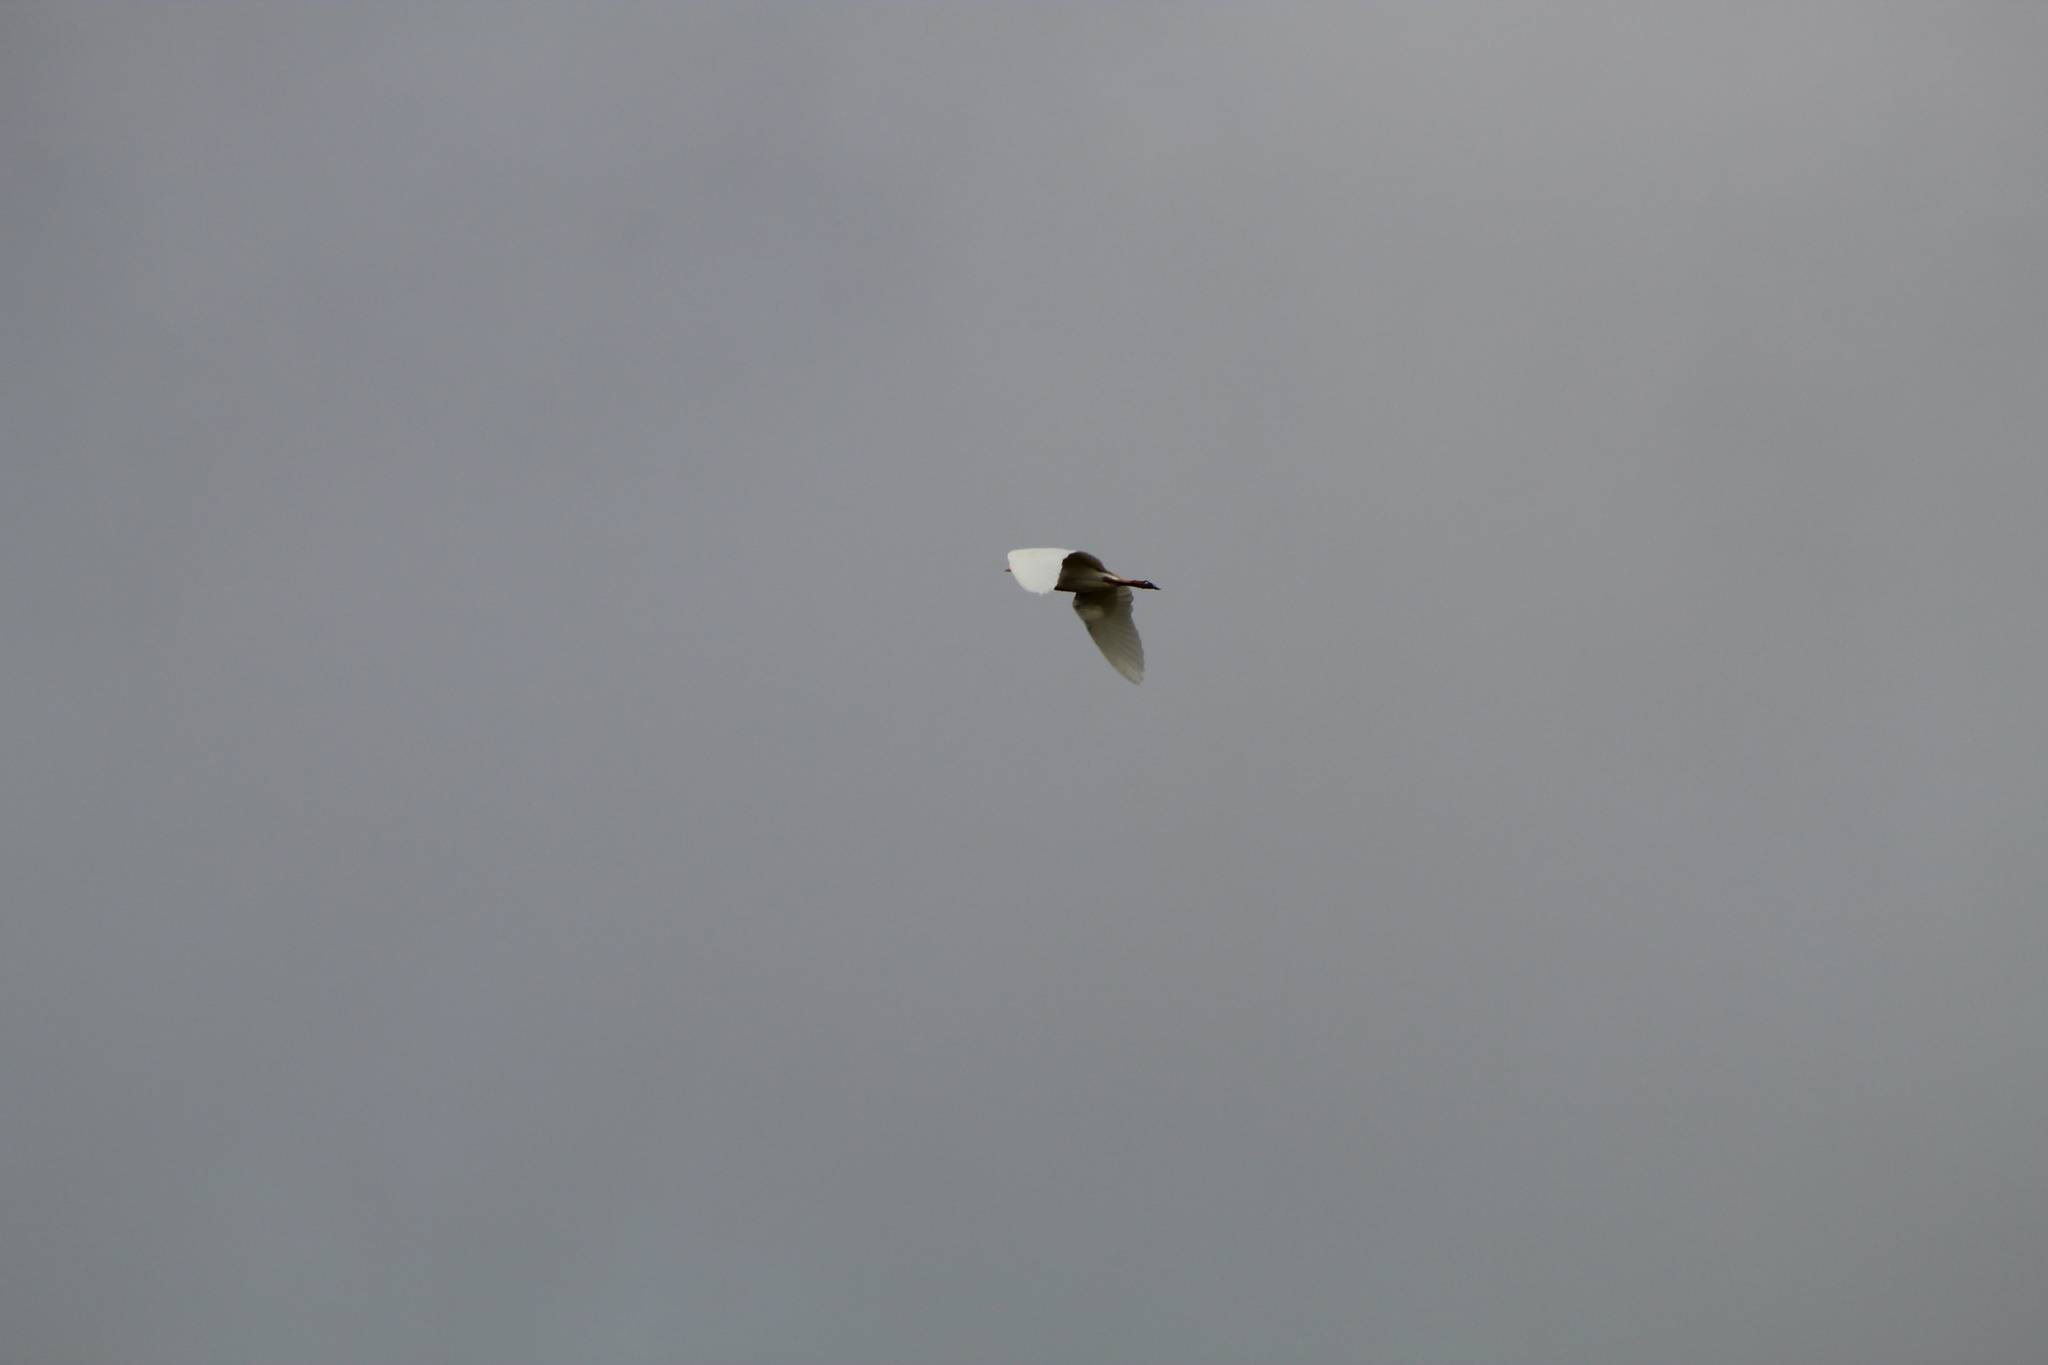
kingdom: Animalia
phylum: Chordata
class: Aves
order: Pelecaniformes
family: Ardeidae
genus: Bubulcus
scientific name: Bubulcus ibis
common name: Cattle egret
